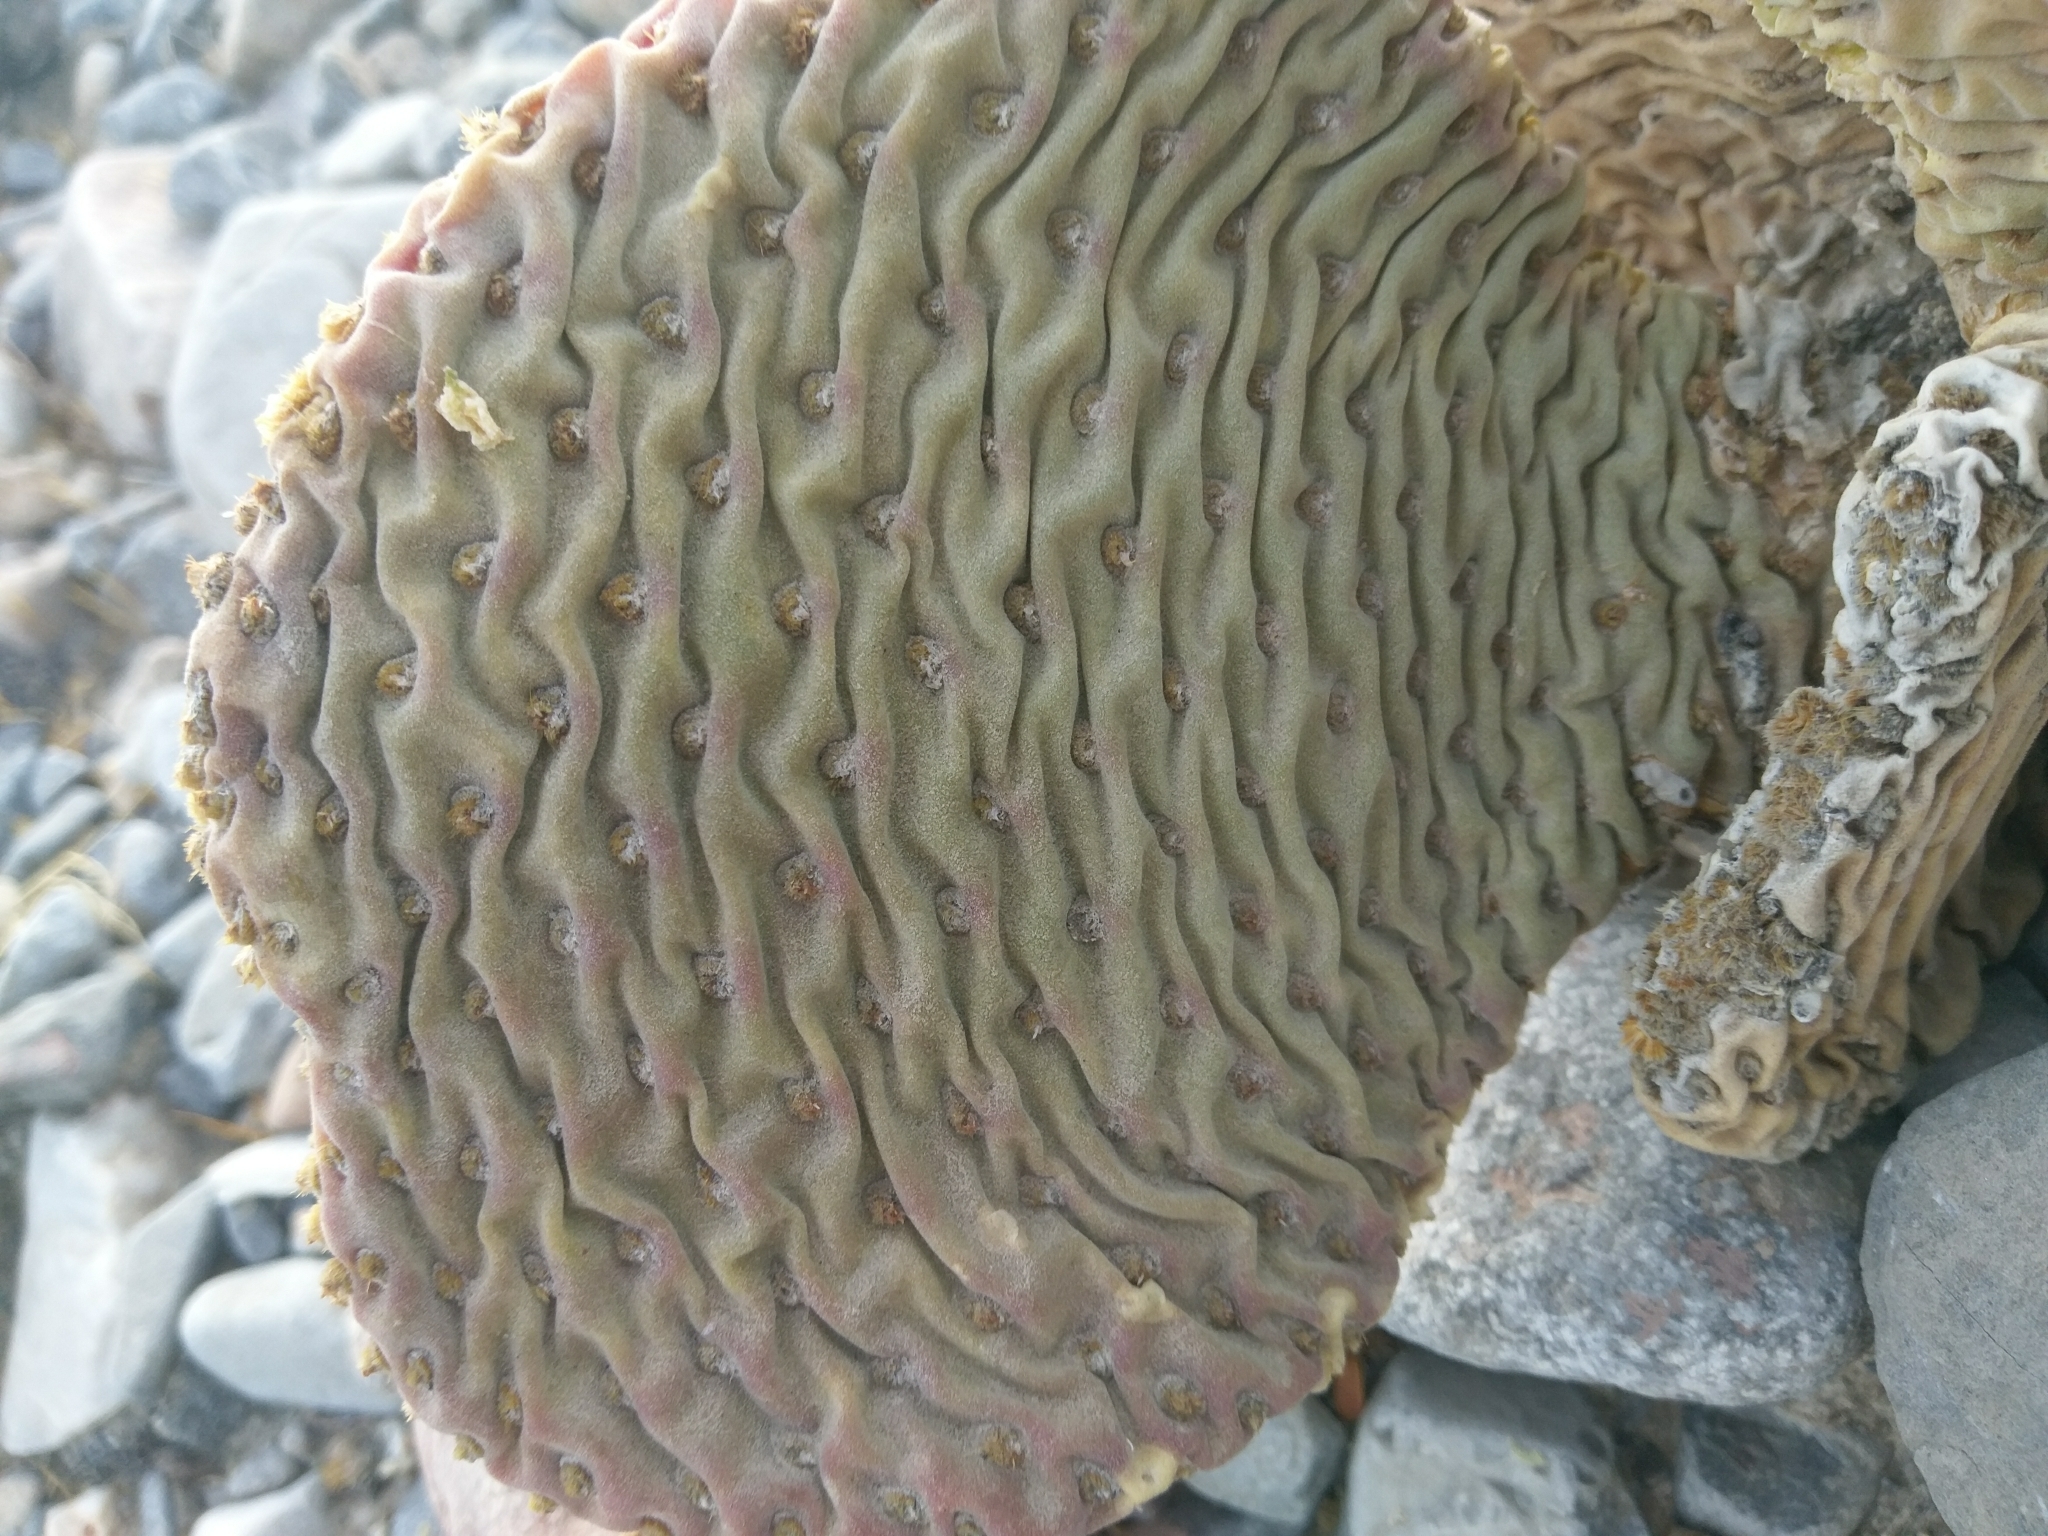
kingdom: Plantae
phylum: Tracheophyta
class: Magnoliopsida
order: Caryophyllales
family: Cactaceae
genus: Opuntia
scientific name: Opuntia basilaris
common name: Beavertail prickly-pear
